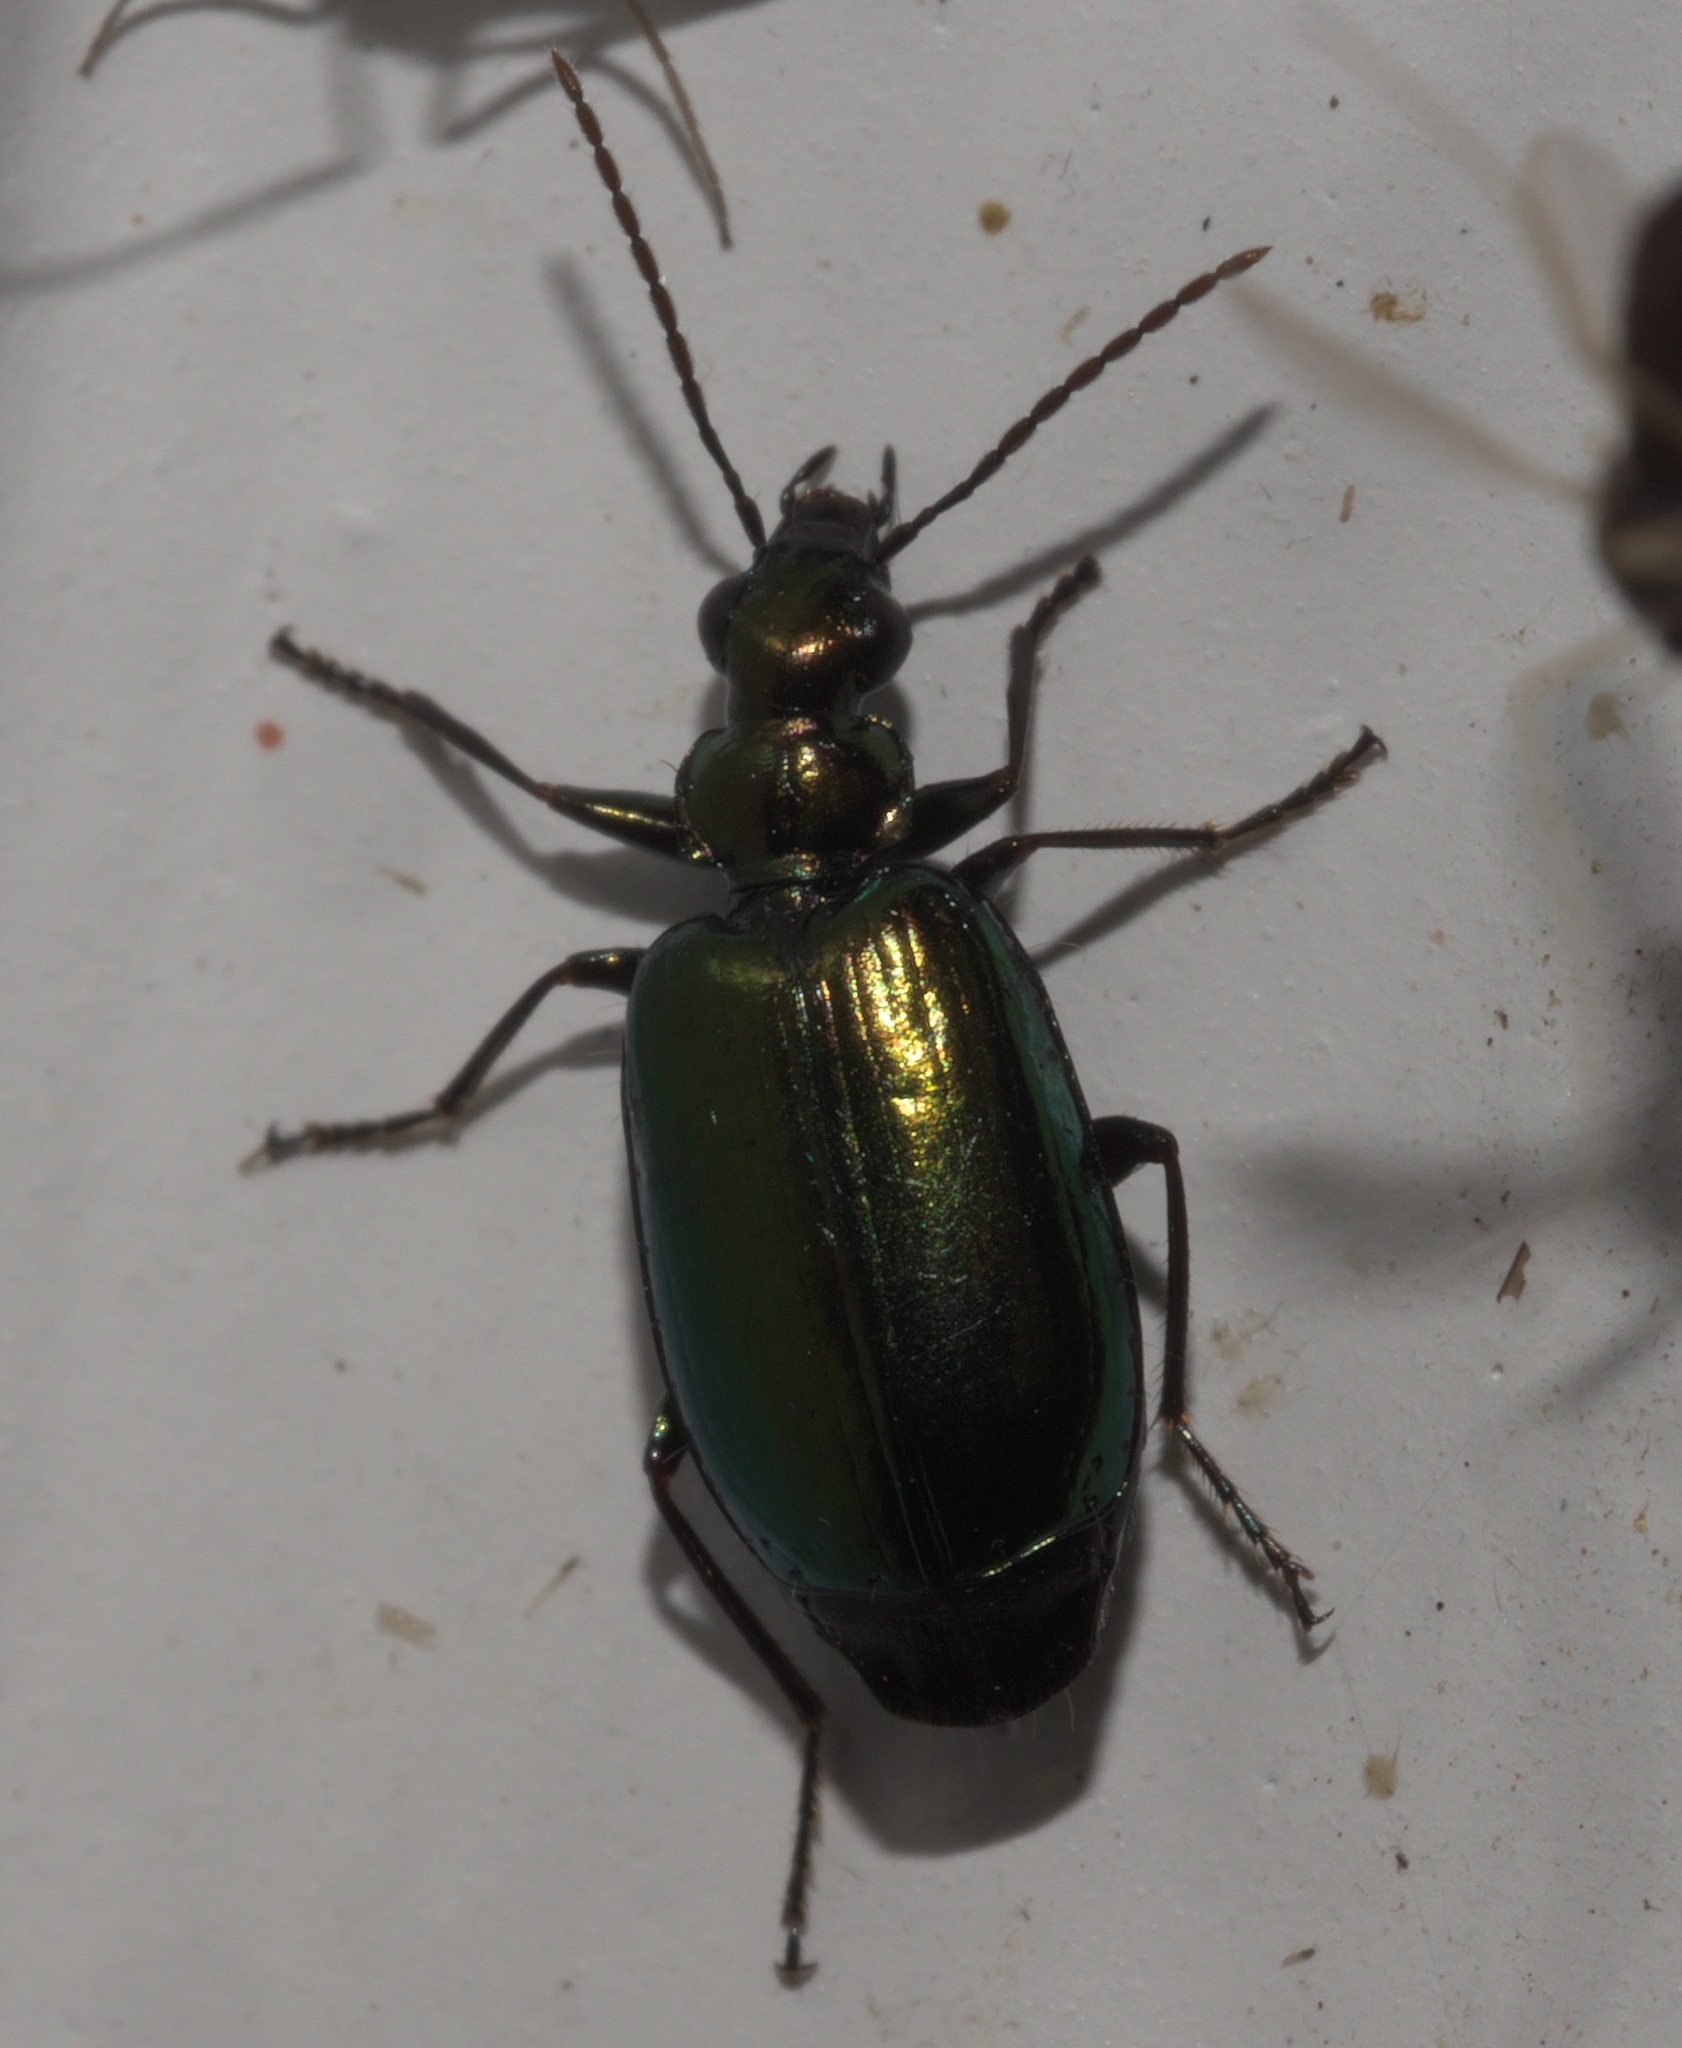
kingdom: Animalia
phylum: Arthropoda
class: Insecta
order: Coleoptera
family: Carabidae
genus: Lebia
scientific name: Lebia viridis
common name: Flower lebia beetle
